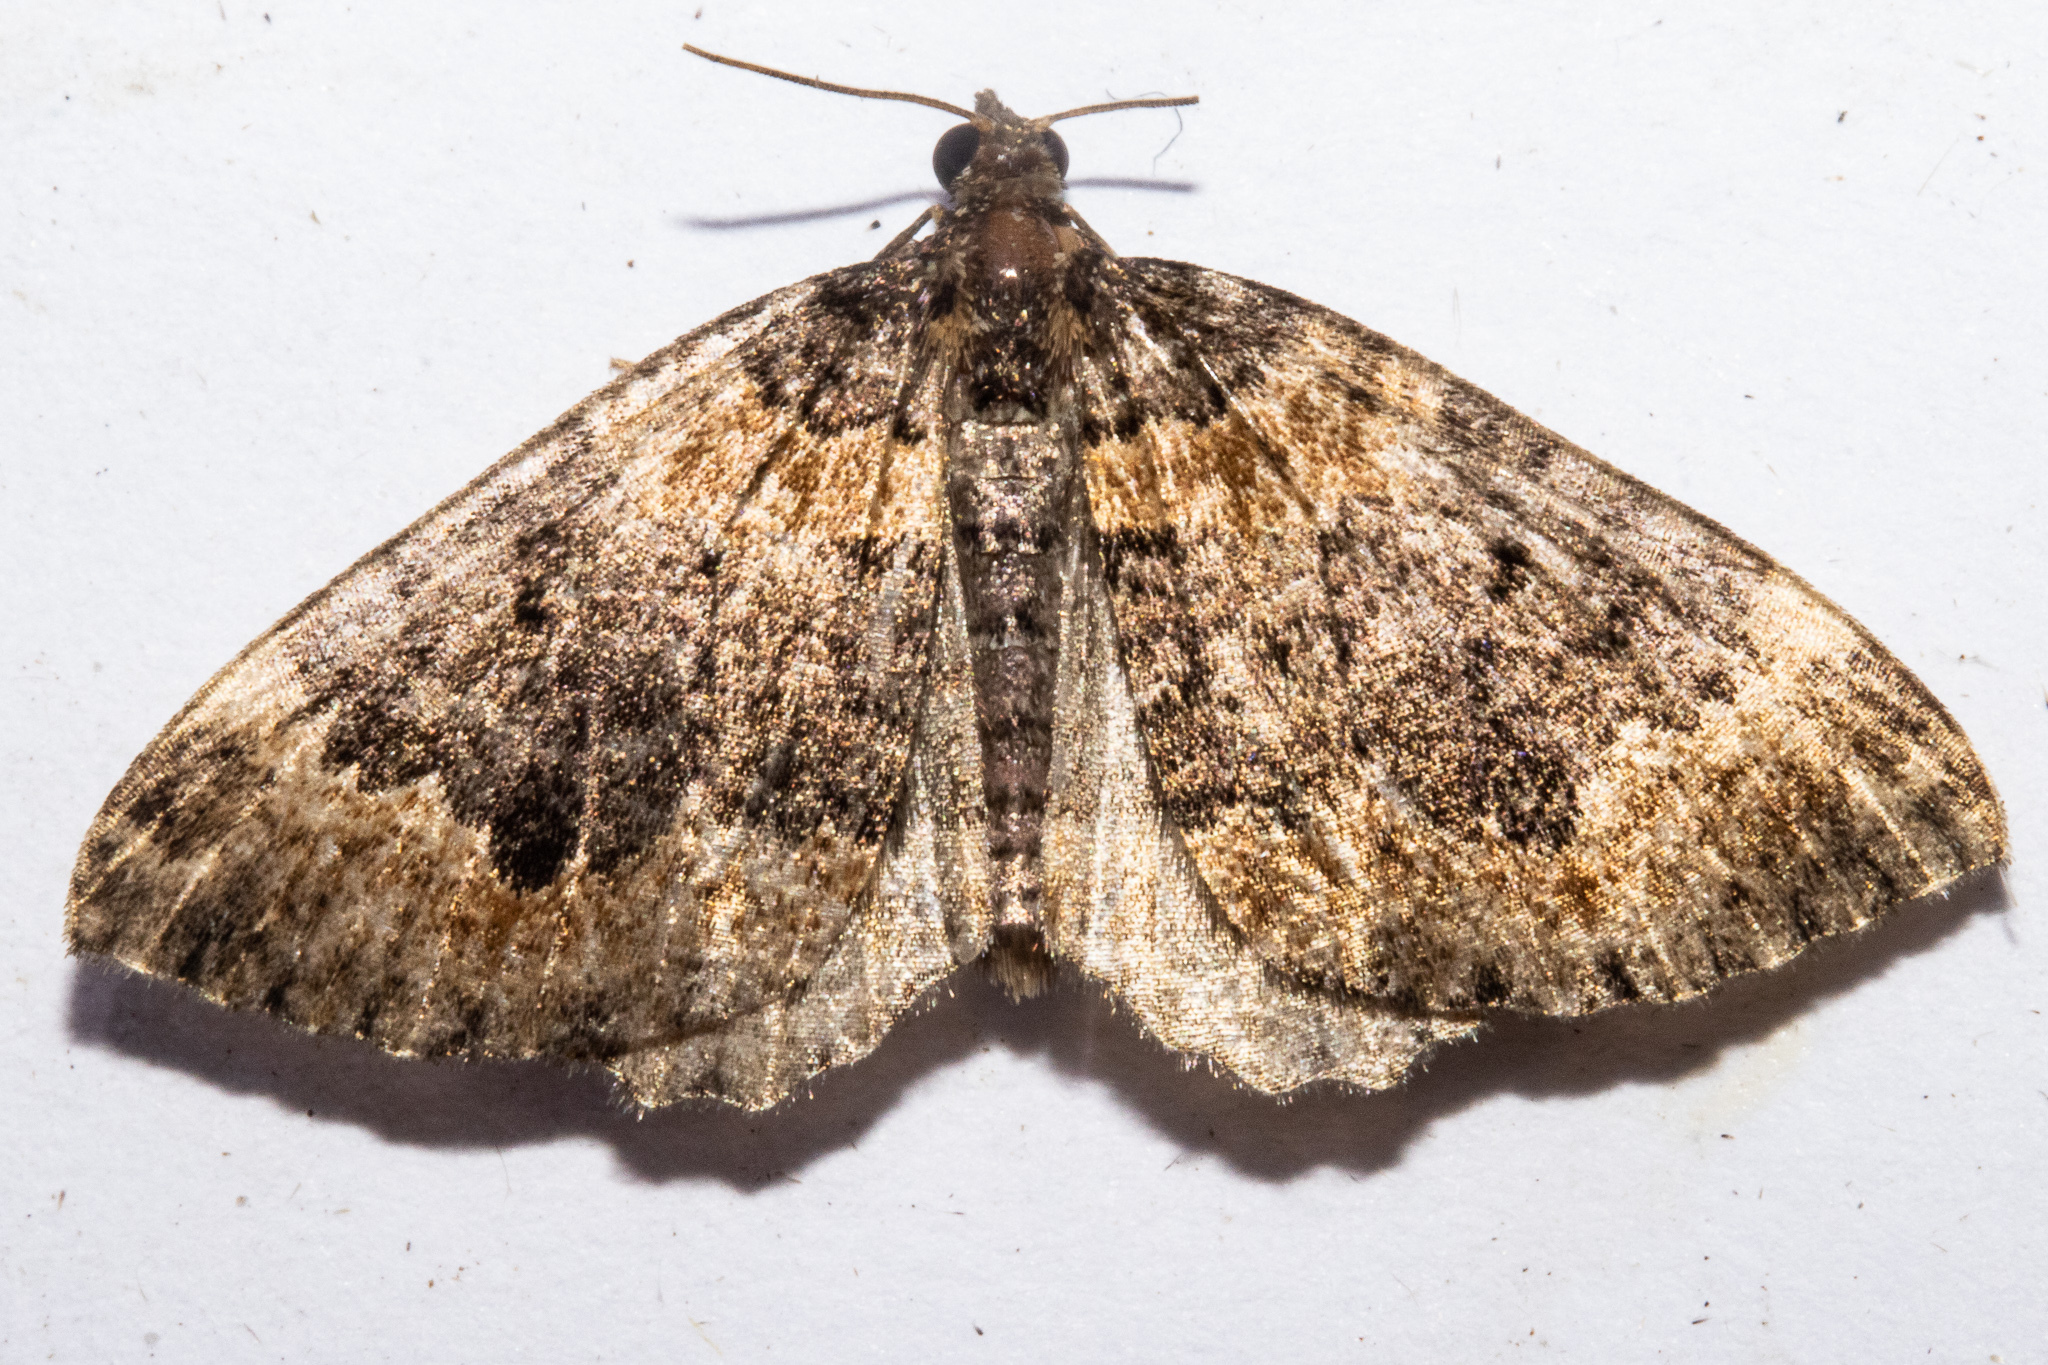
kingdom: Animalia
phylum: Arthropoda
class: Insecta
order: Lepidoptera
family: Geometridae
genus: Hydriomena
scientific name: Hydriomena hemizona
